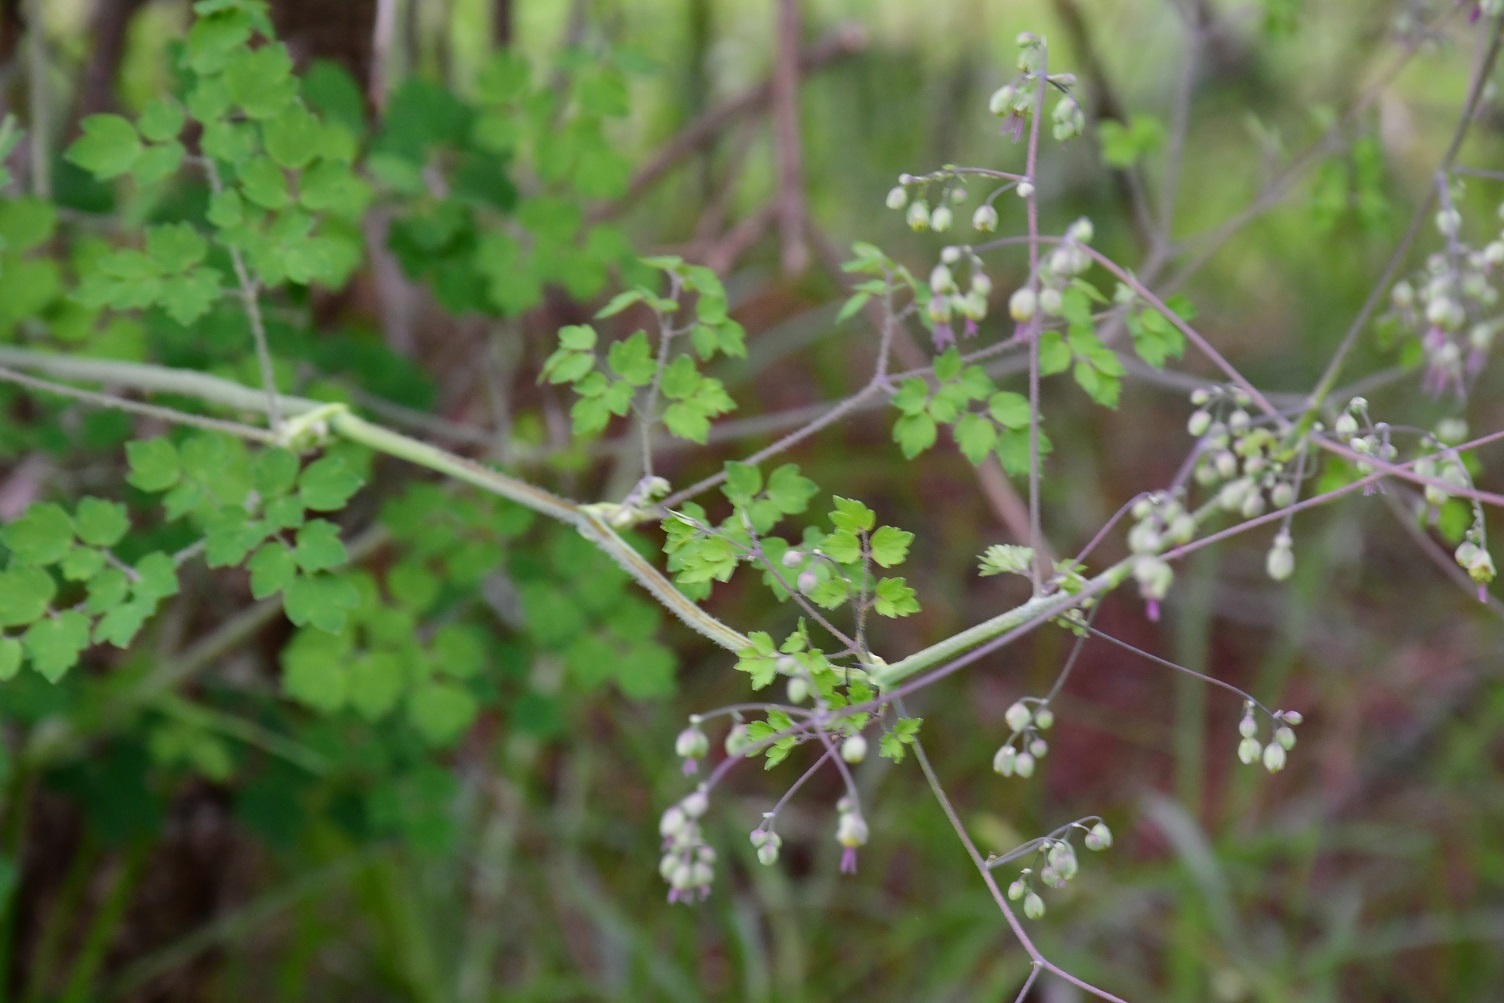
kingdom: Plantae
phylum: Tracheophyta
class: Magnoliopsida
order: Ranunculales
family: Ranunculaceae
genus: Thalictrum
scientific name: Thalictrum guatemalense
